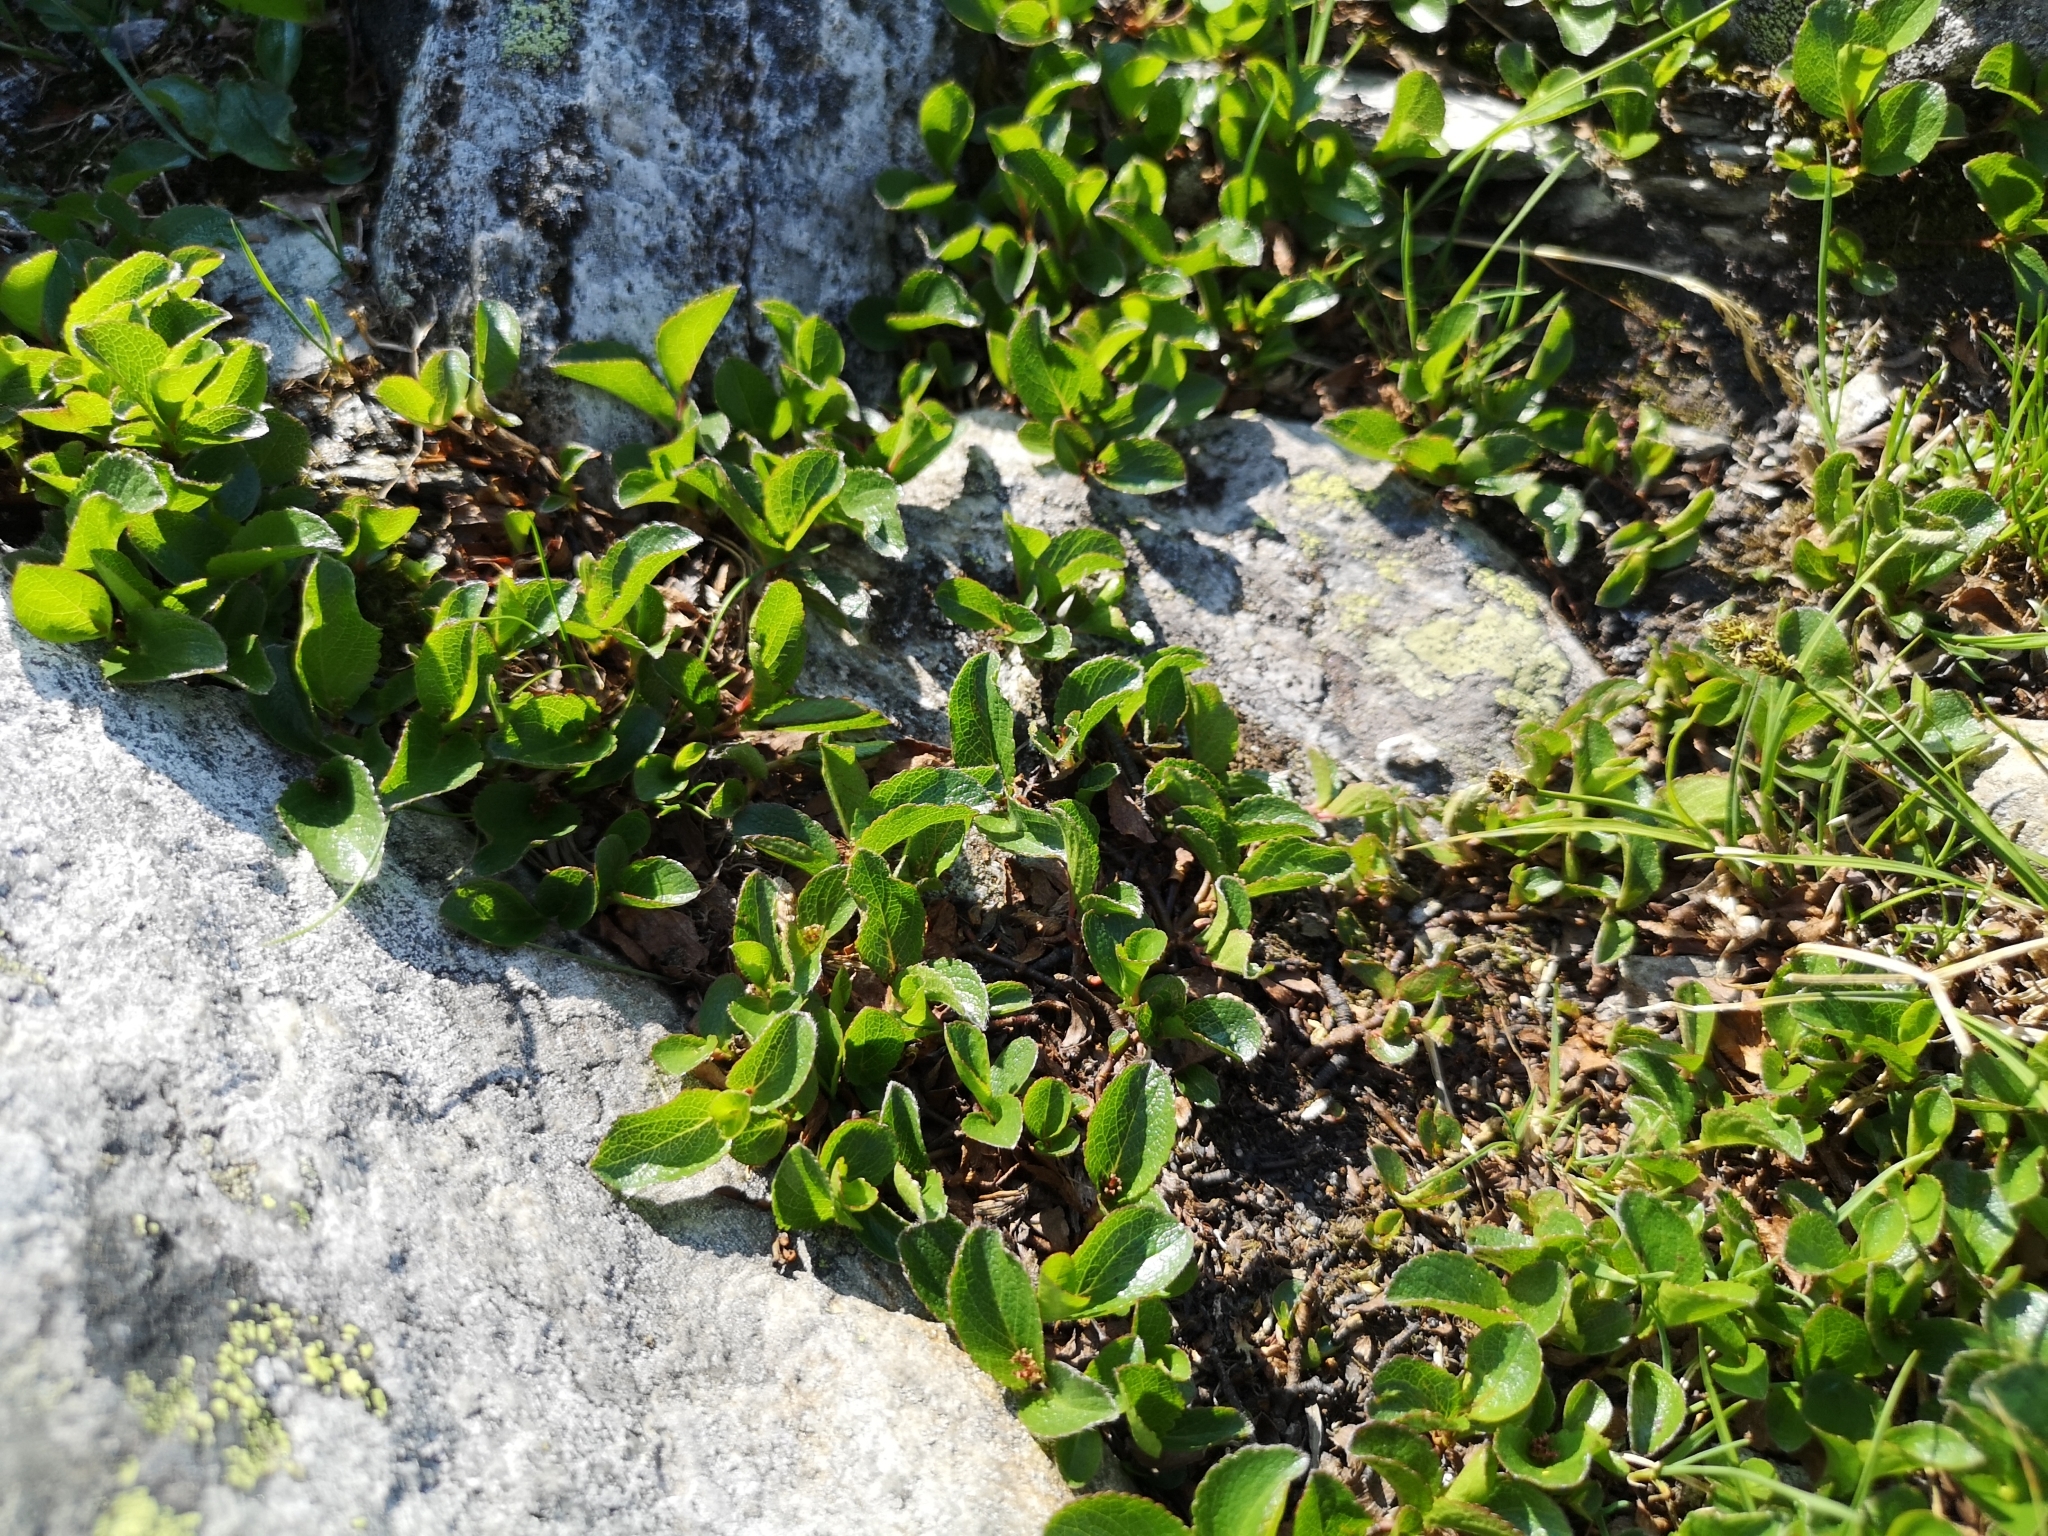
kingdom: Plantae
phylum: Tracheophyta
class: Magnoliopsida
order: Malpighiales
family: Salicaceae
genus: Salix
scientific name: Salix herbacea
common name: Dwarf willow
